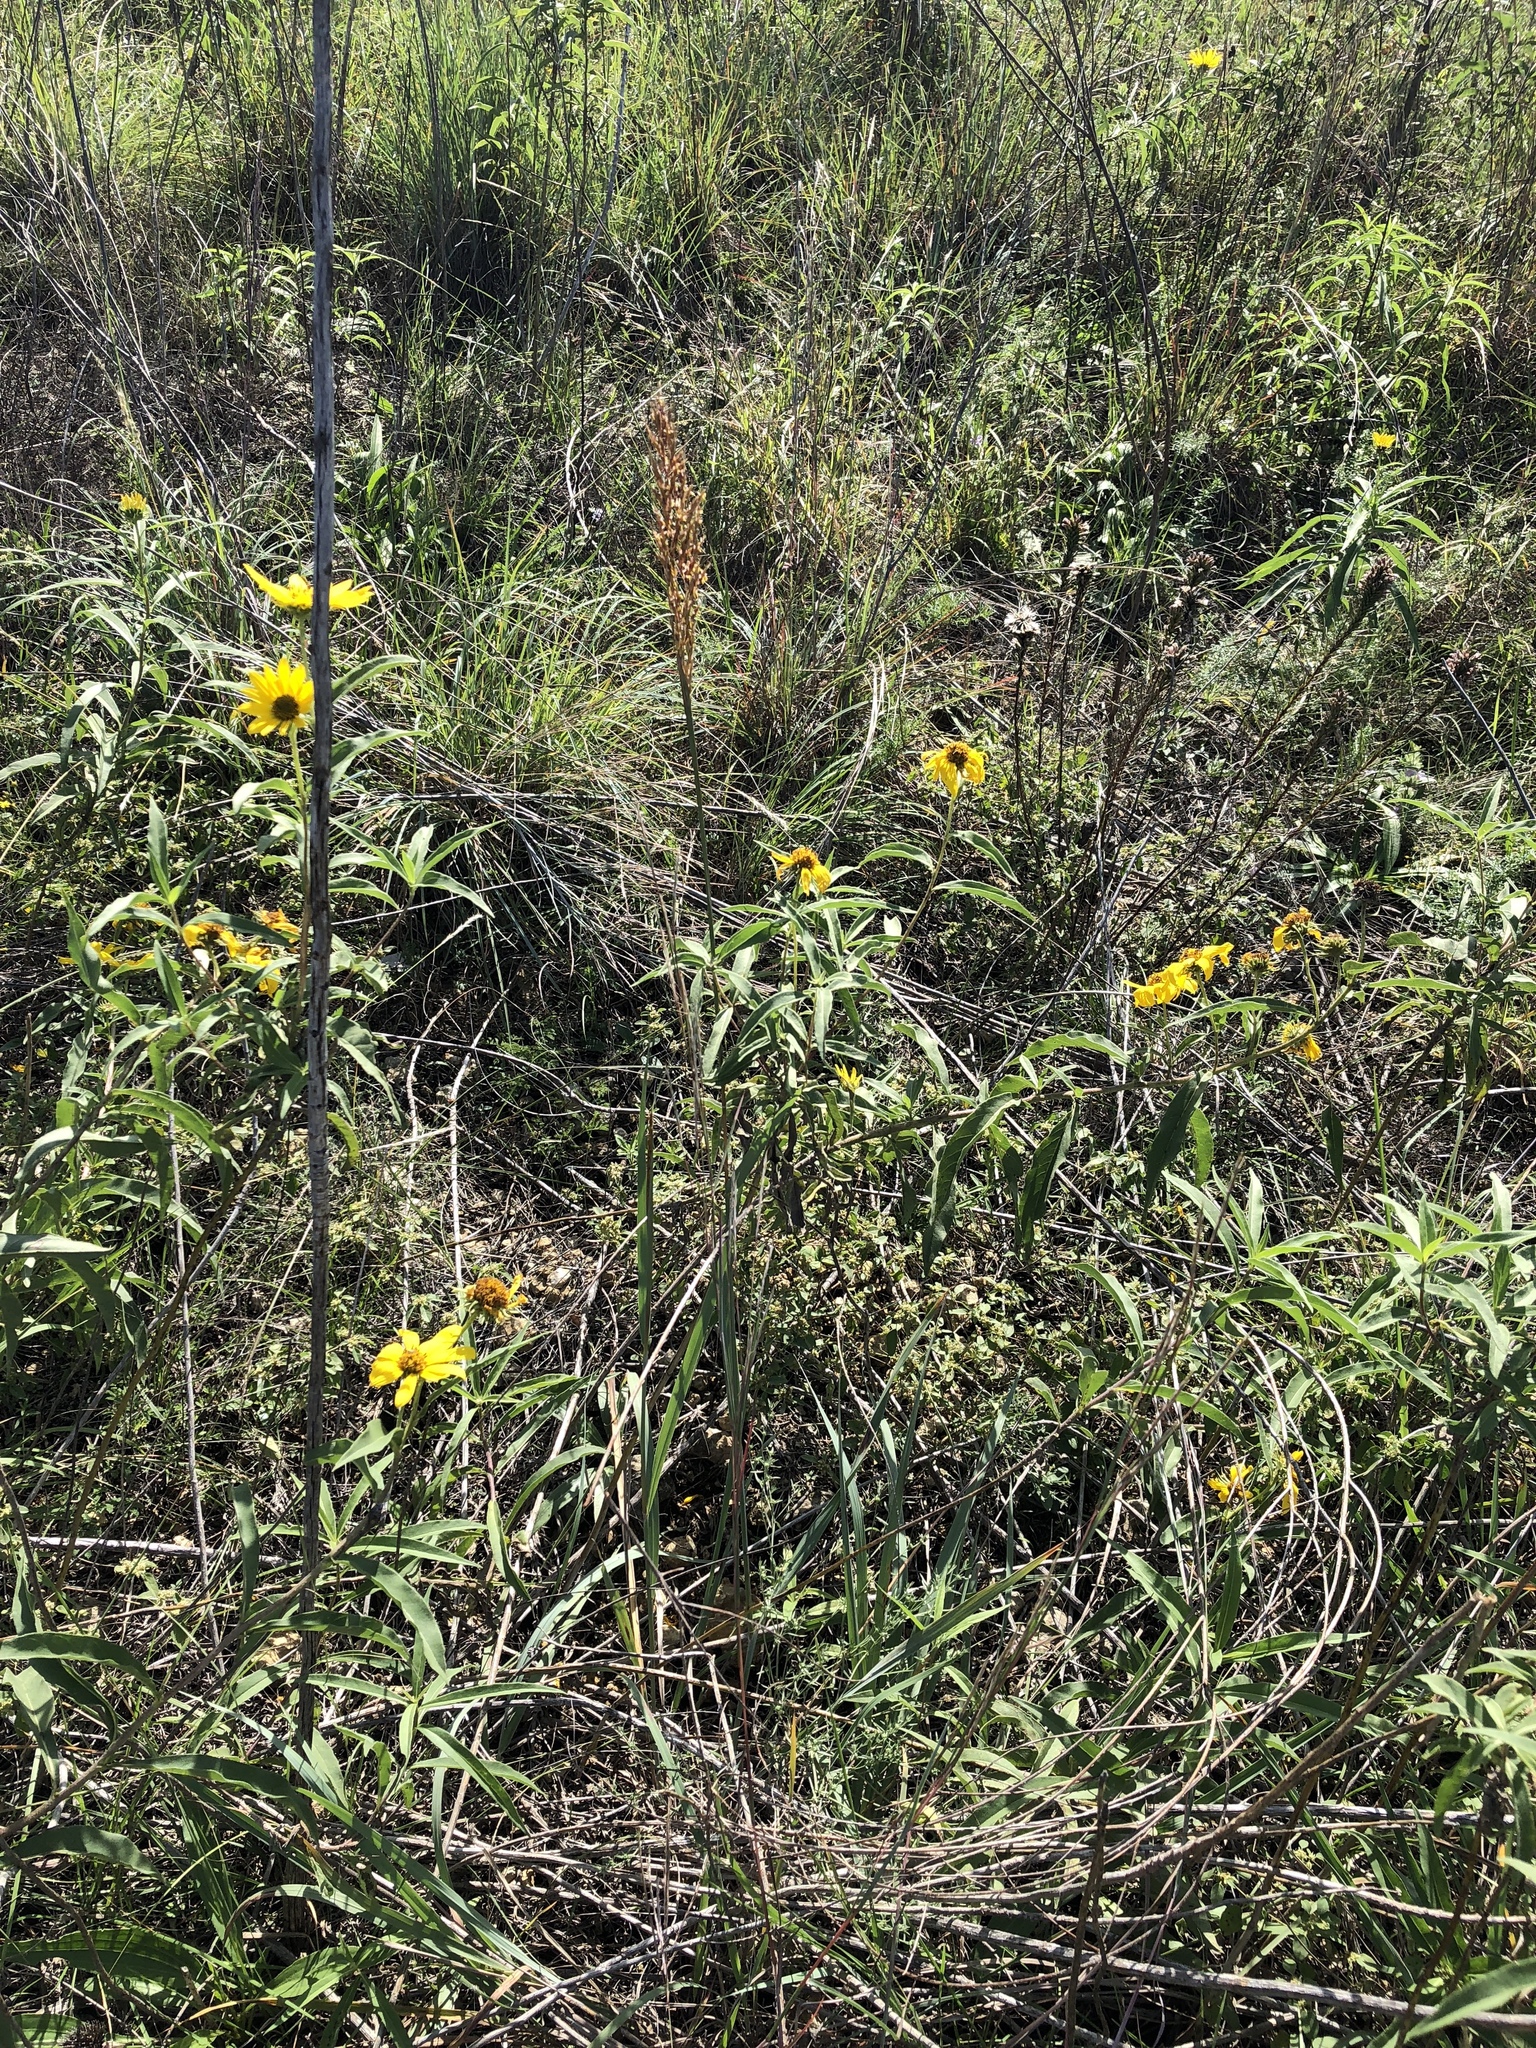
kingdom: Plantae
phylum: Tracheophyta
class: Liliopsida
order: Poales
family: Poaceae
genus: Sorghastrum
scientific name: Sorghastrum nutans
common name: Indian grass
